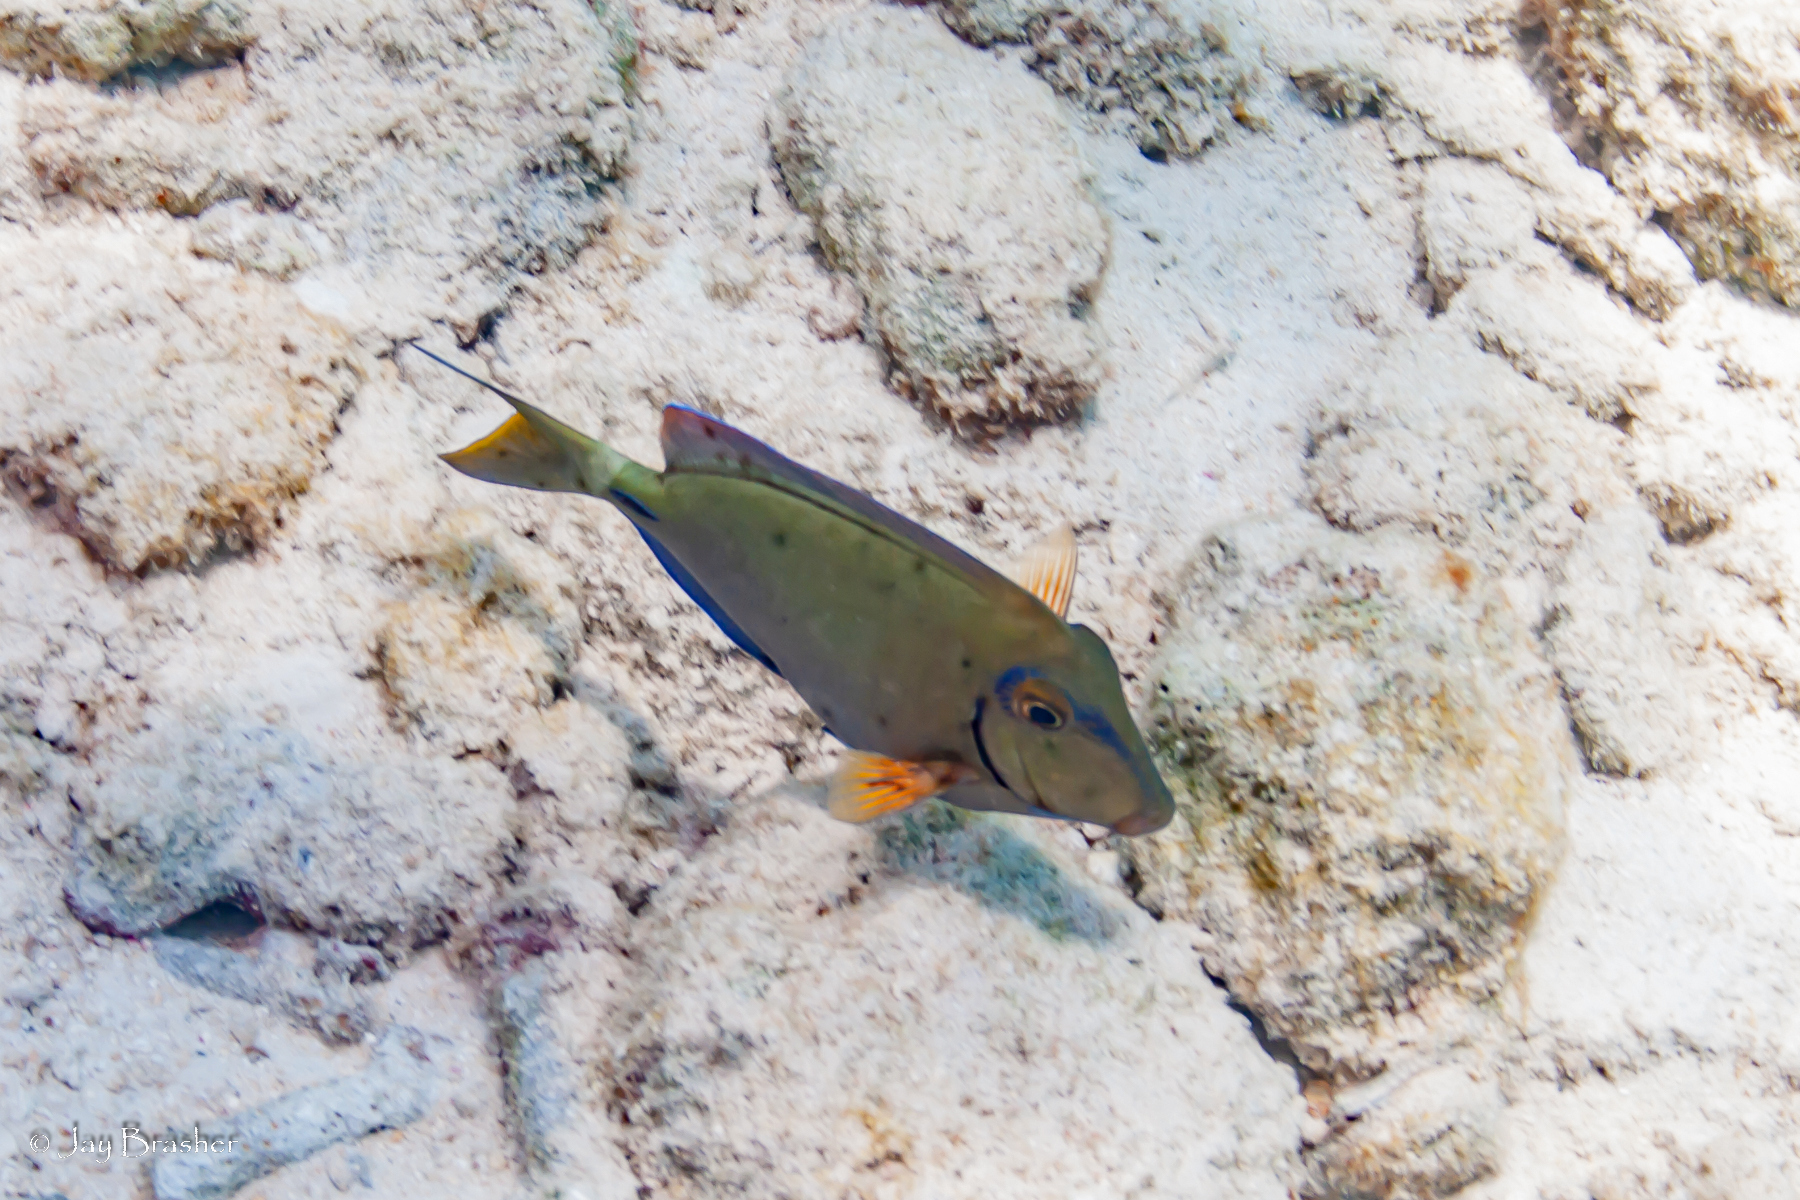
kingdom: Animalia
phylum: Chordata
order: Perciformes
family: Acanthuridae
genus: Acanthurus
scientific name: Acanthurus bahianus
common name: Ocean surgeon
